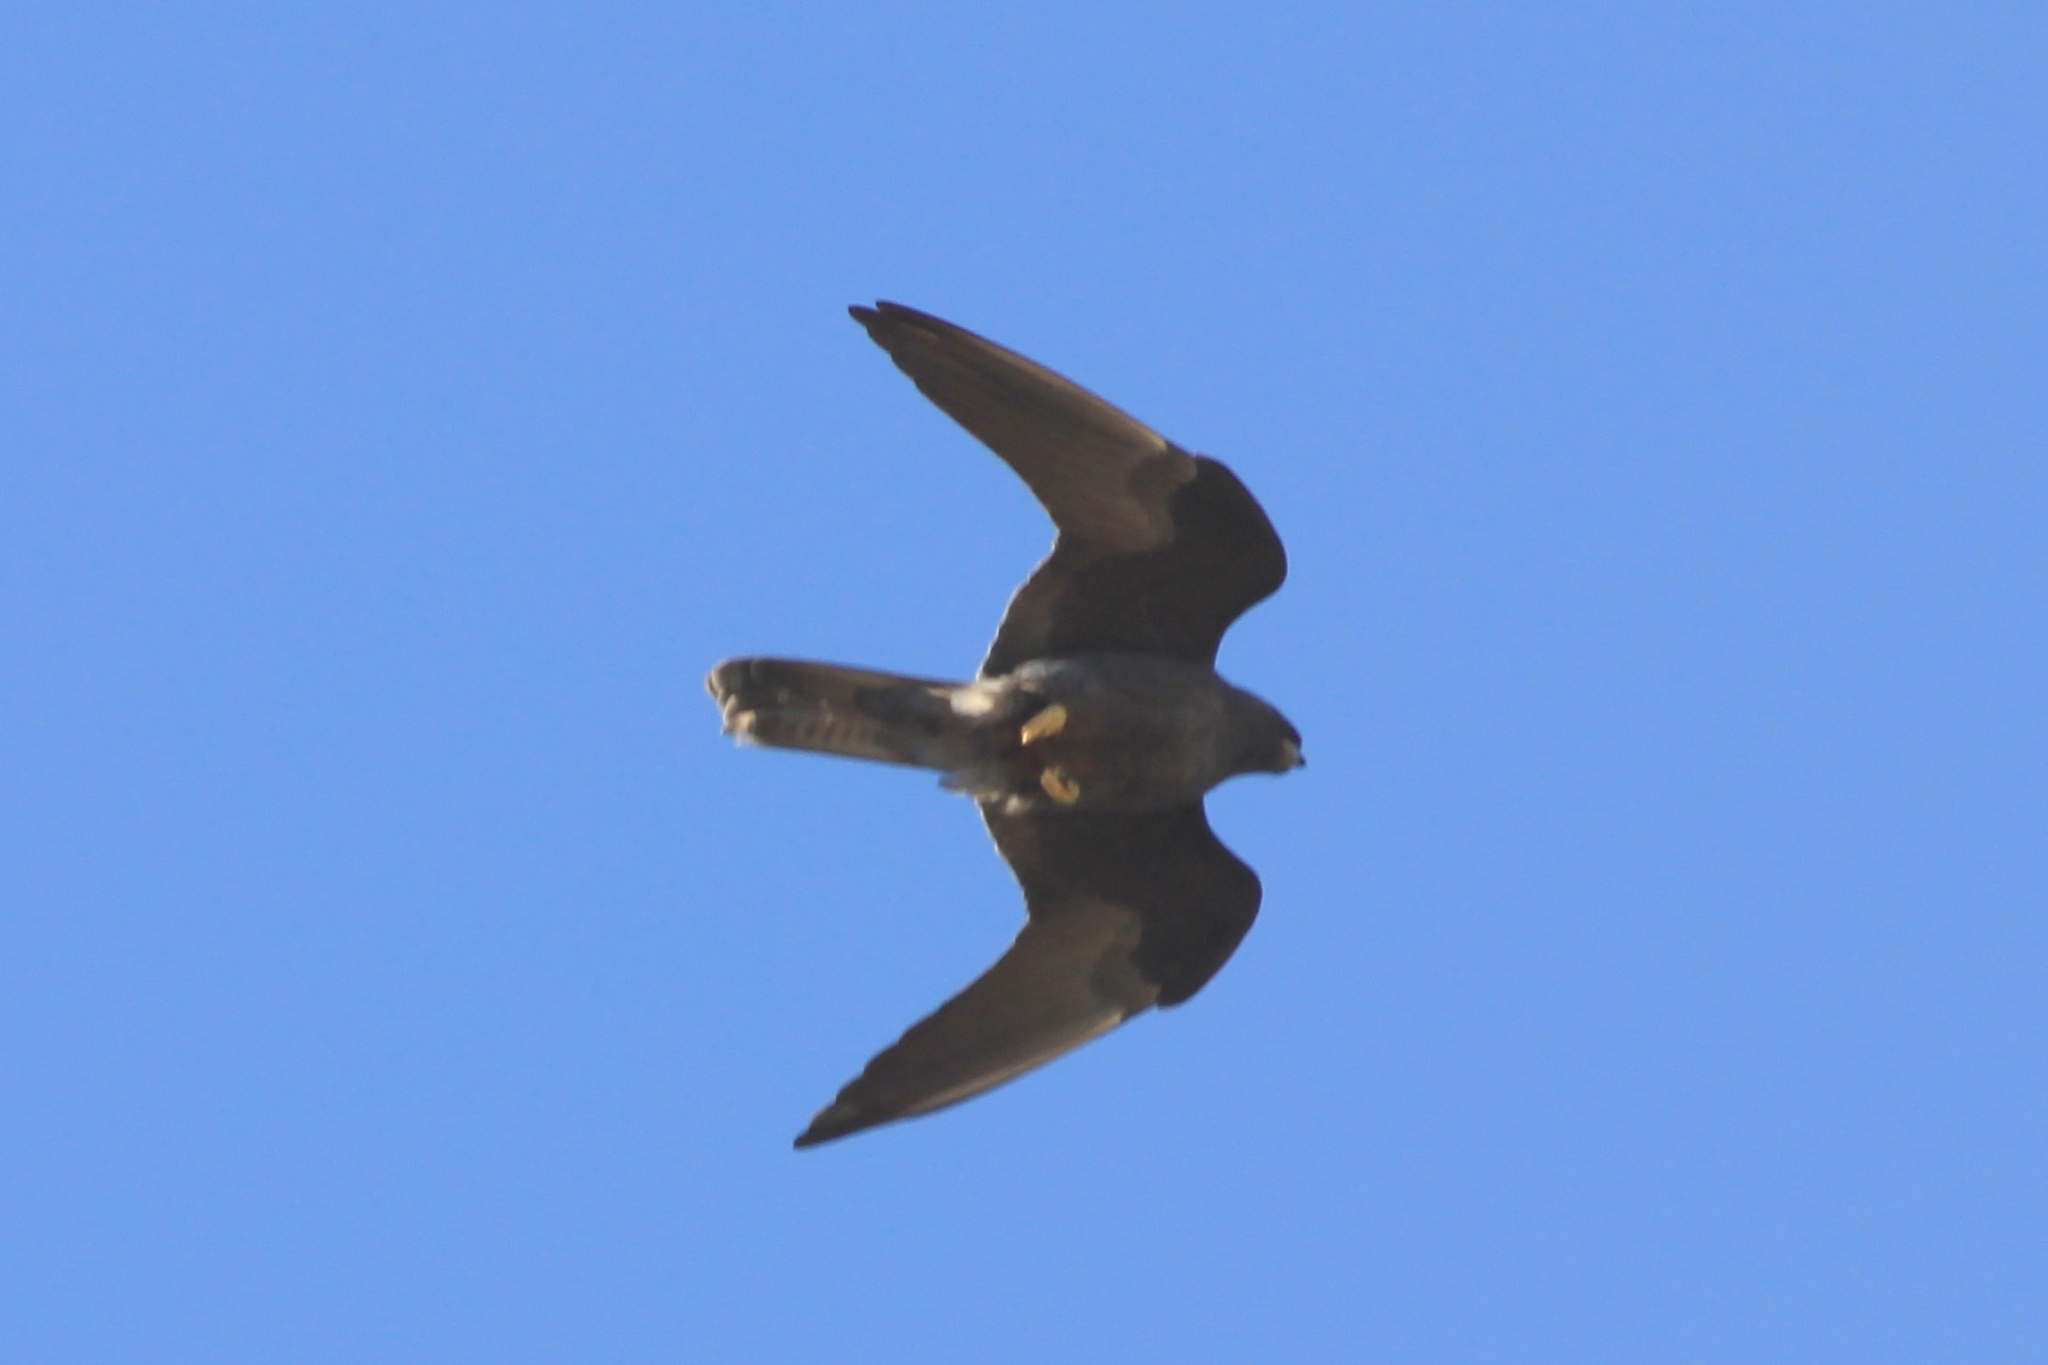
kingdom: Animalia
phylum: Chordata
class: Aves
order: Falconiformes
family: Falconidae
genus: Falco
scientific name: Falco eleonorae
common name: Eleonora's falcon
